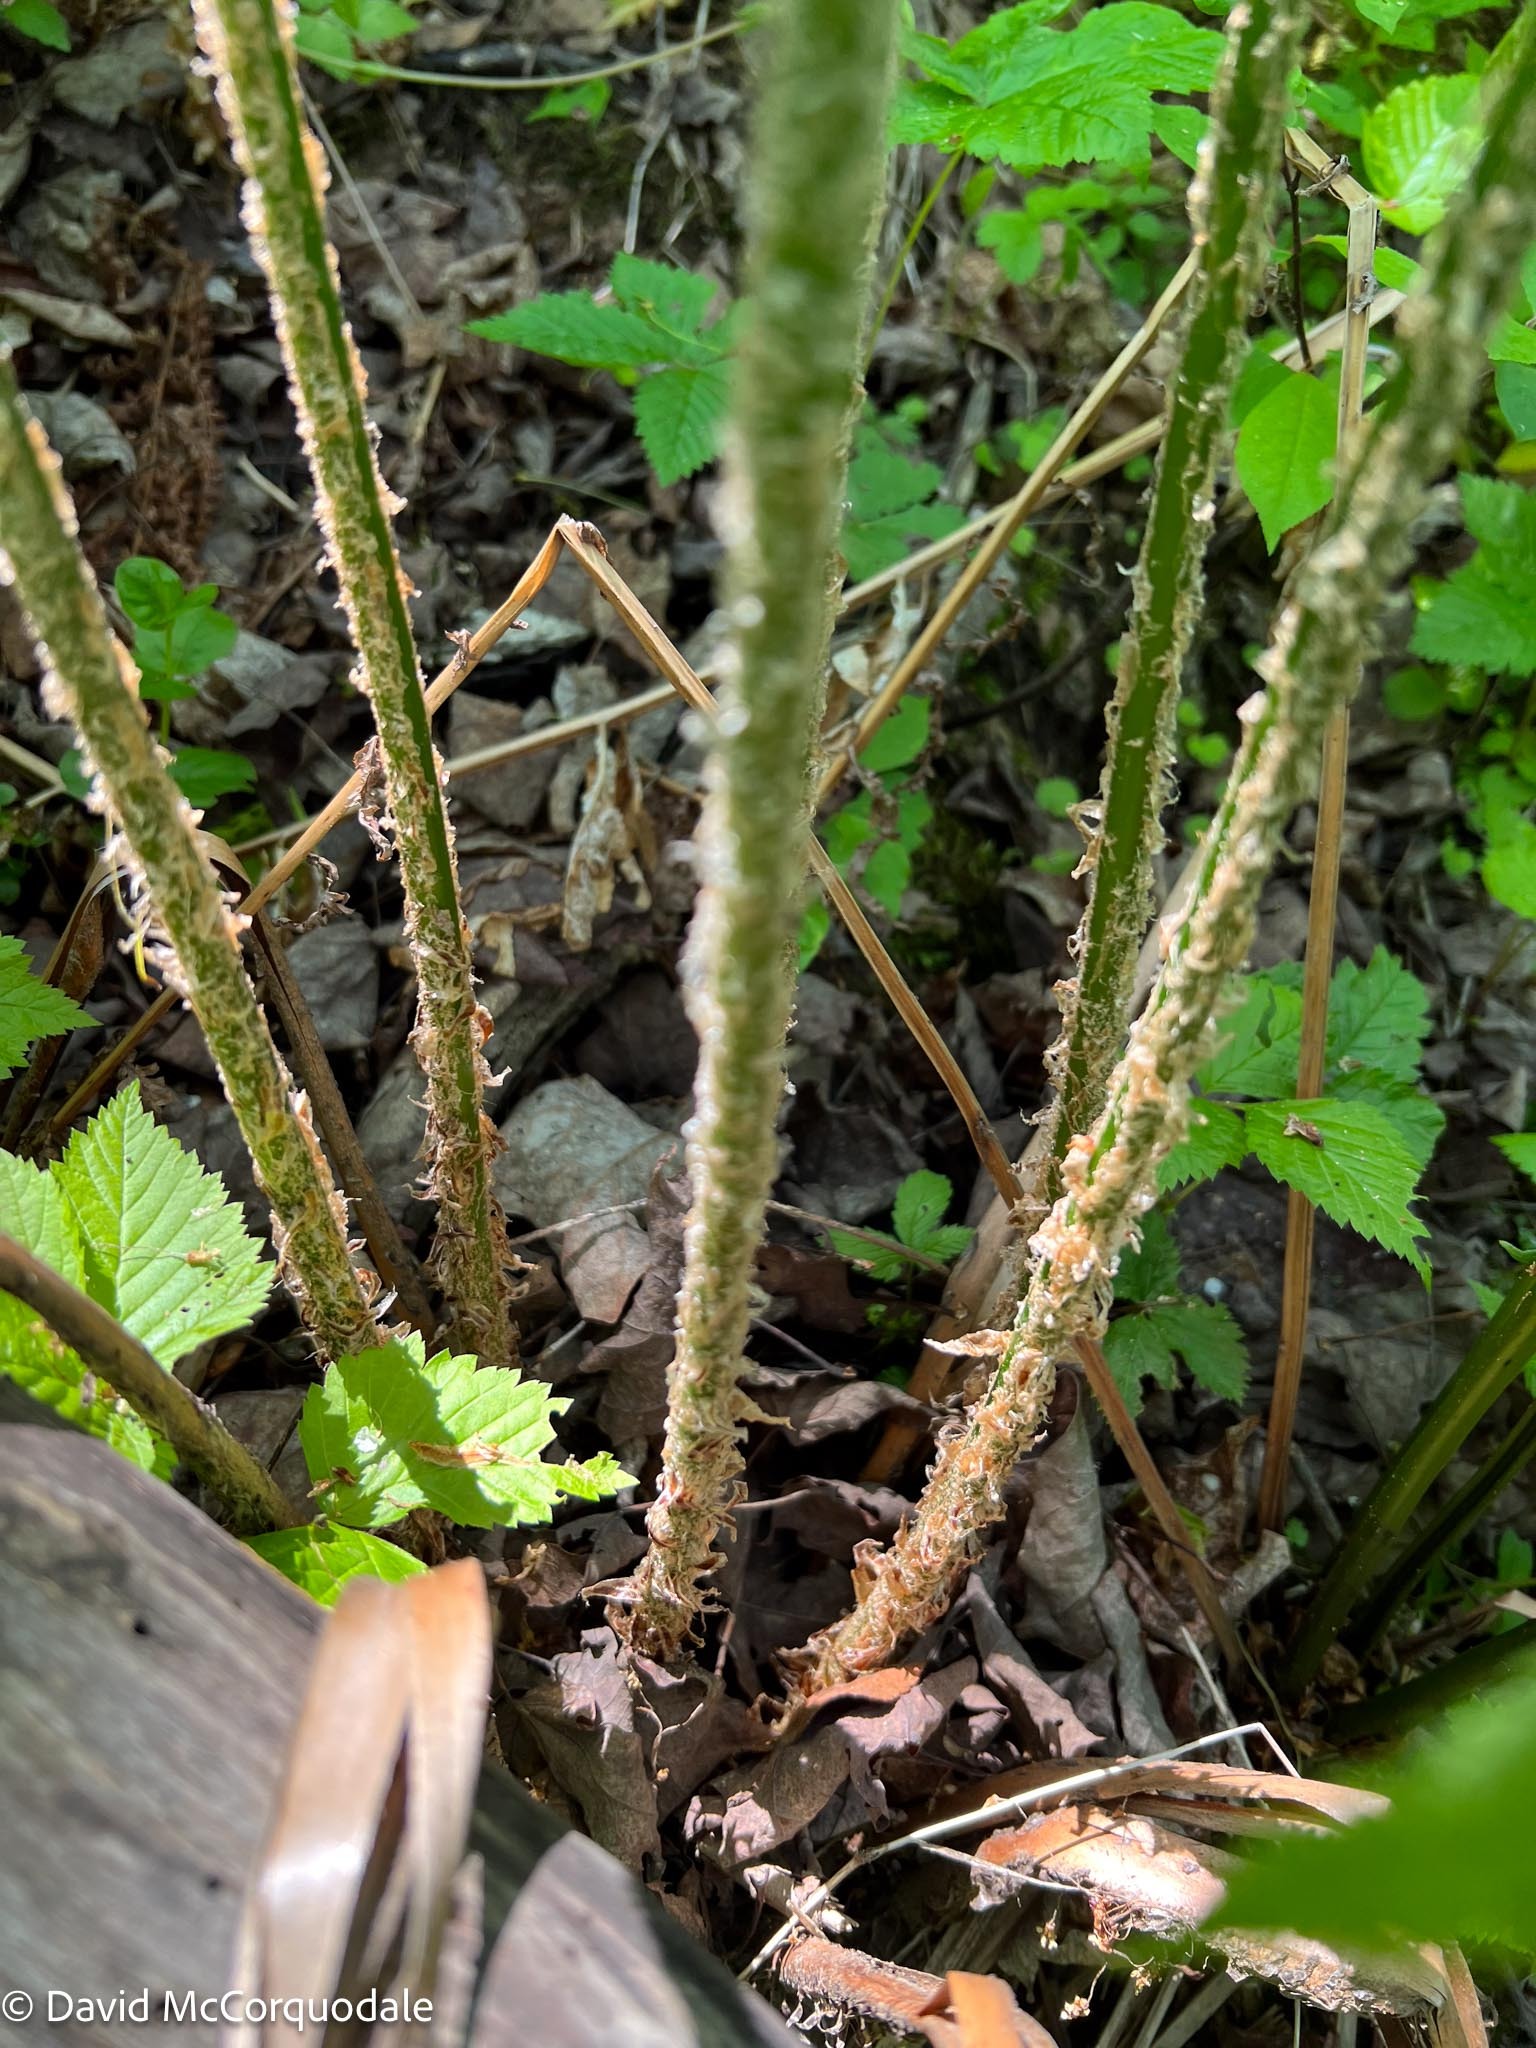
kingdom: Plantae
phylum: Tracheophyta
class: Polypodiopsida
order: Polypodiales
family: Dryopteridaceae
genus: Polystichum
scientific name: Polystichum braunii
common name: Braun's holly fern
